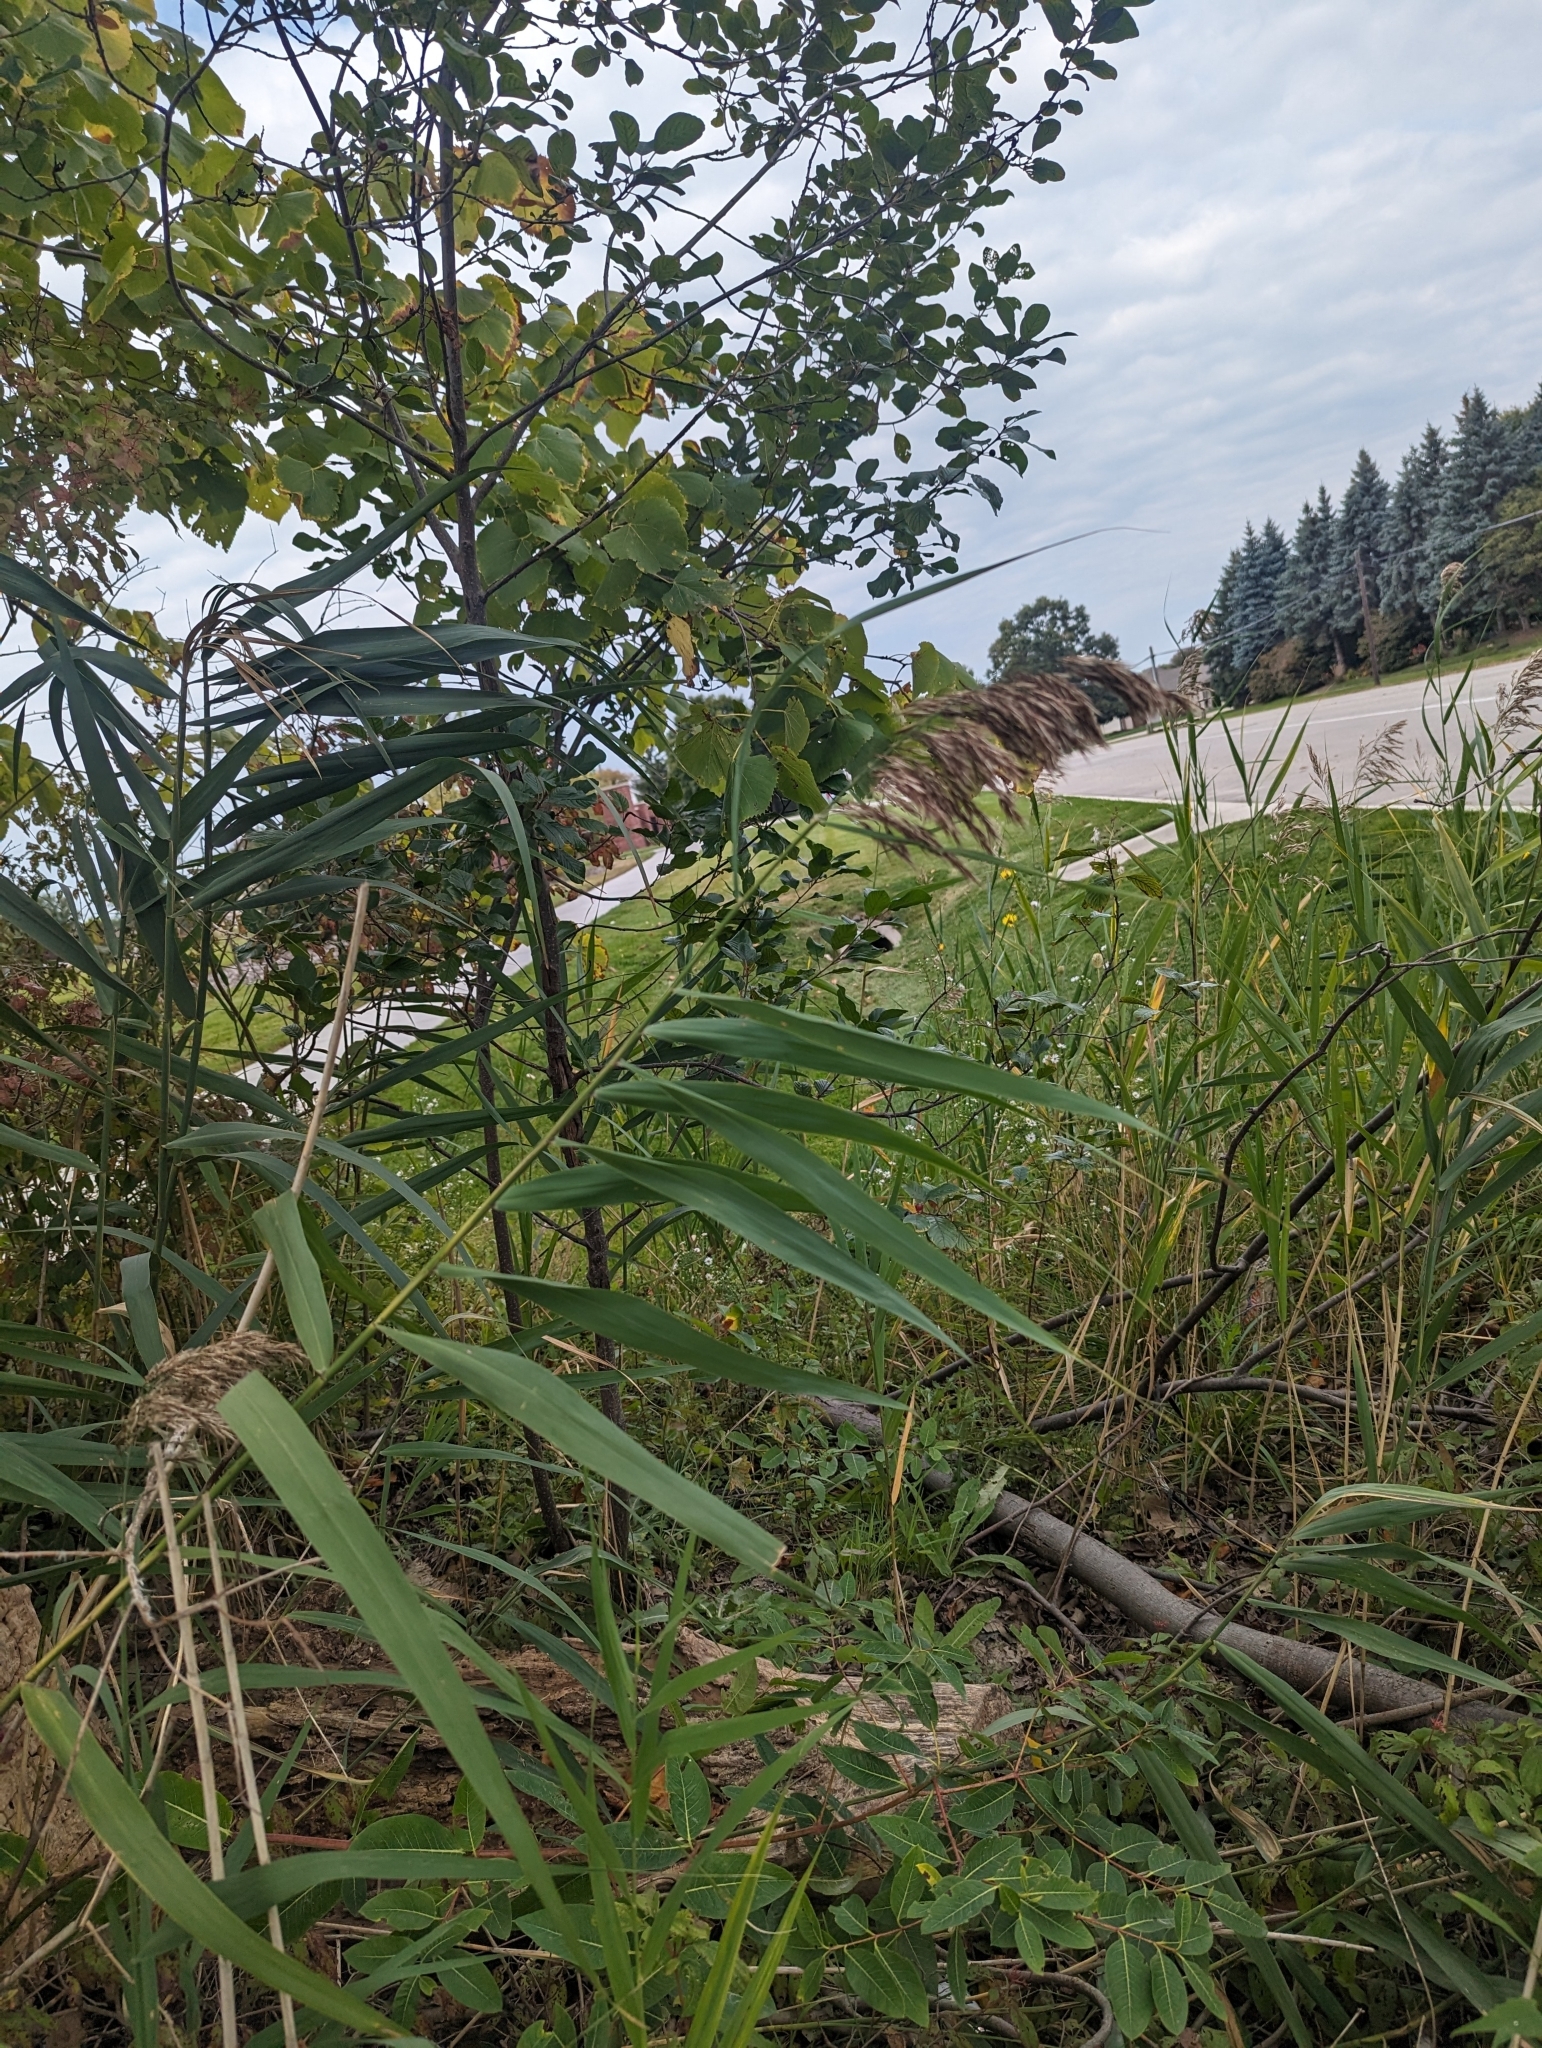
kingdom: Plantae
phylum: Tracheophyta
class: Liliopsida
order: Poales
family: Poaceae
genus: Phragmites
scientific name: Phragmites australis
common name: Common reed
